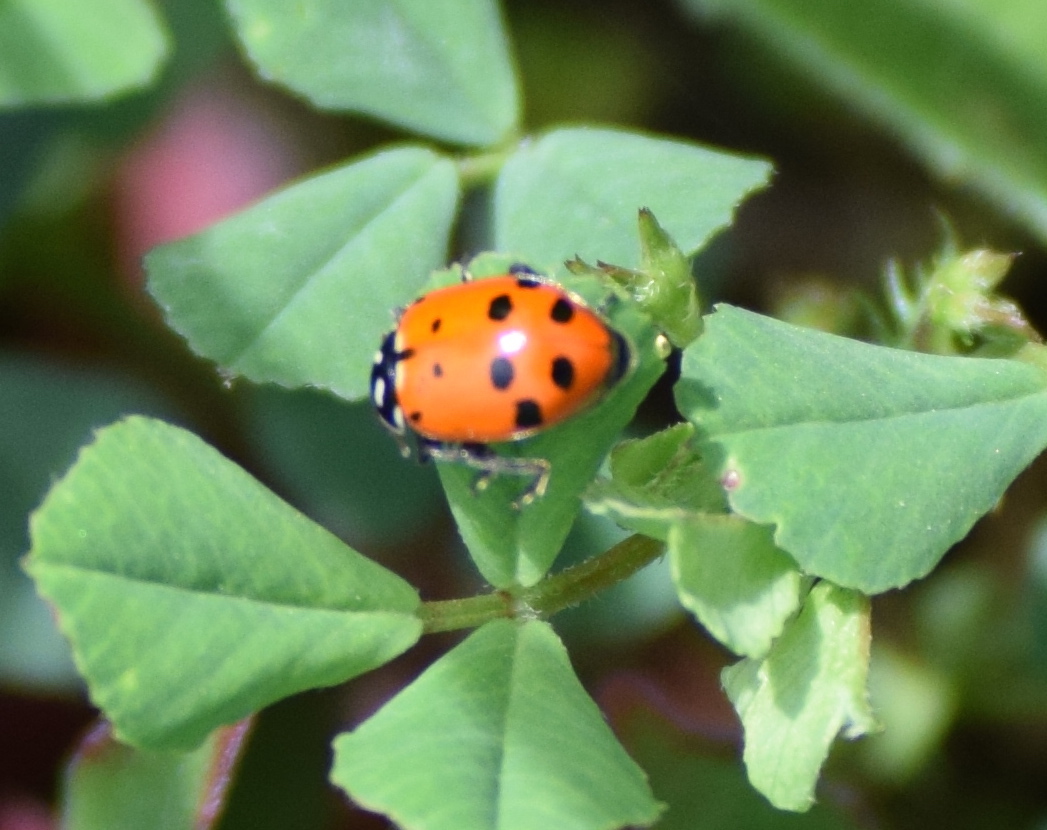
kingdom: Animalia
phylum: Arthropoda
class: Insecta
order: Coleoptera
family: Coccinellidae
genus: Hippodamia
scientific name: Hippodamia convergens
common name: Convergent lady beetle
